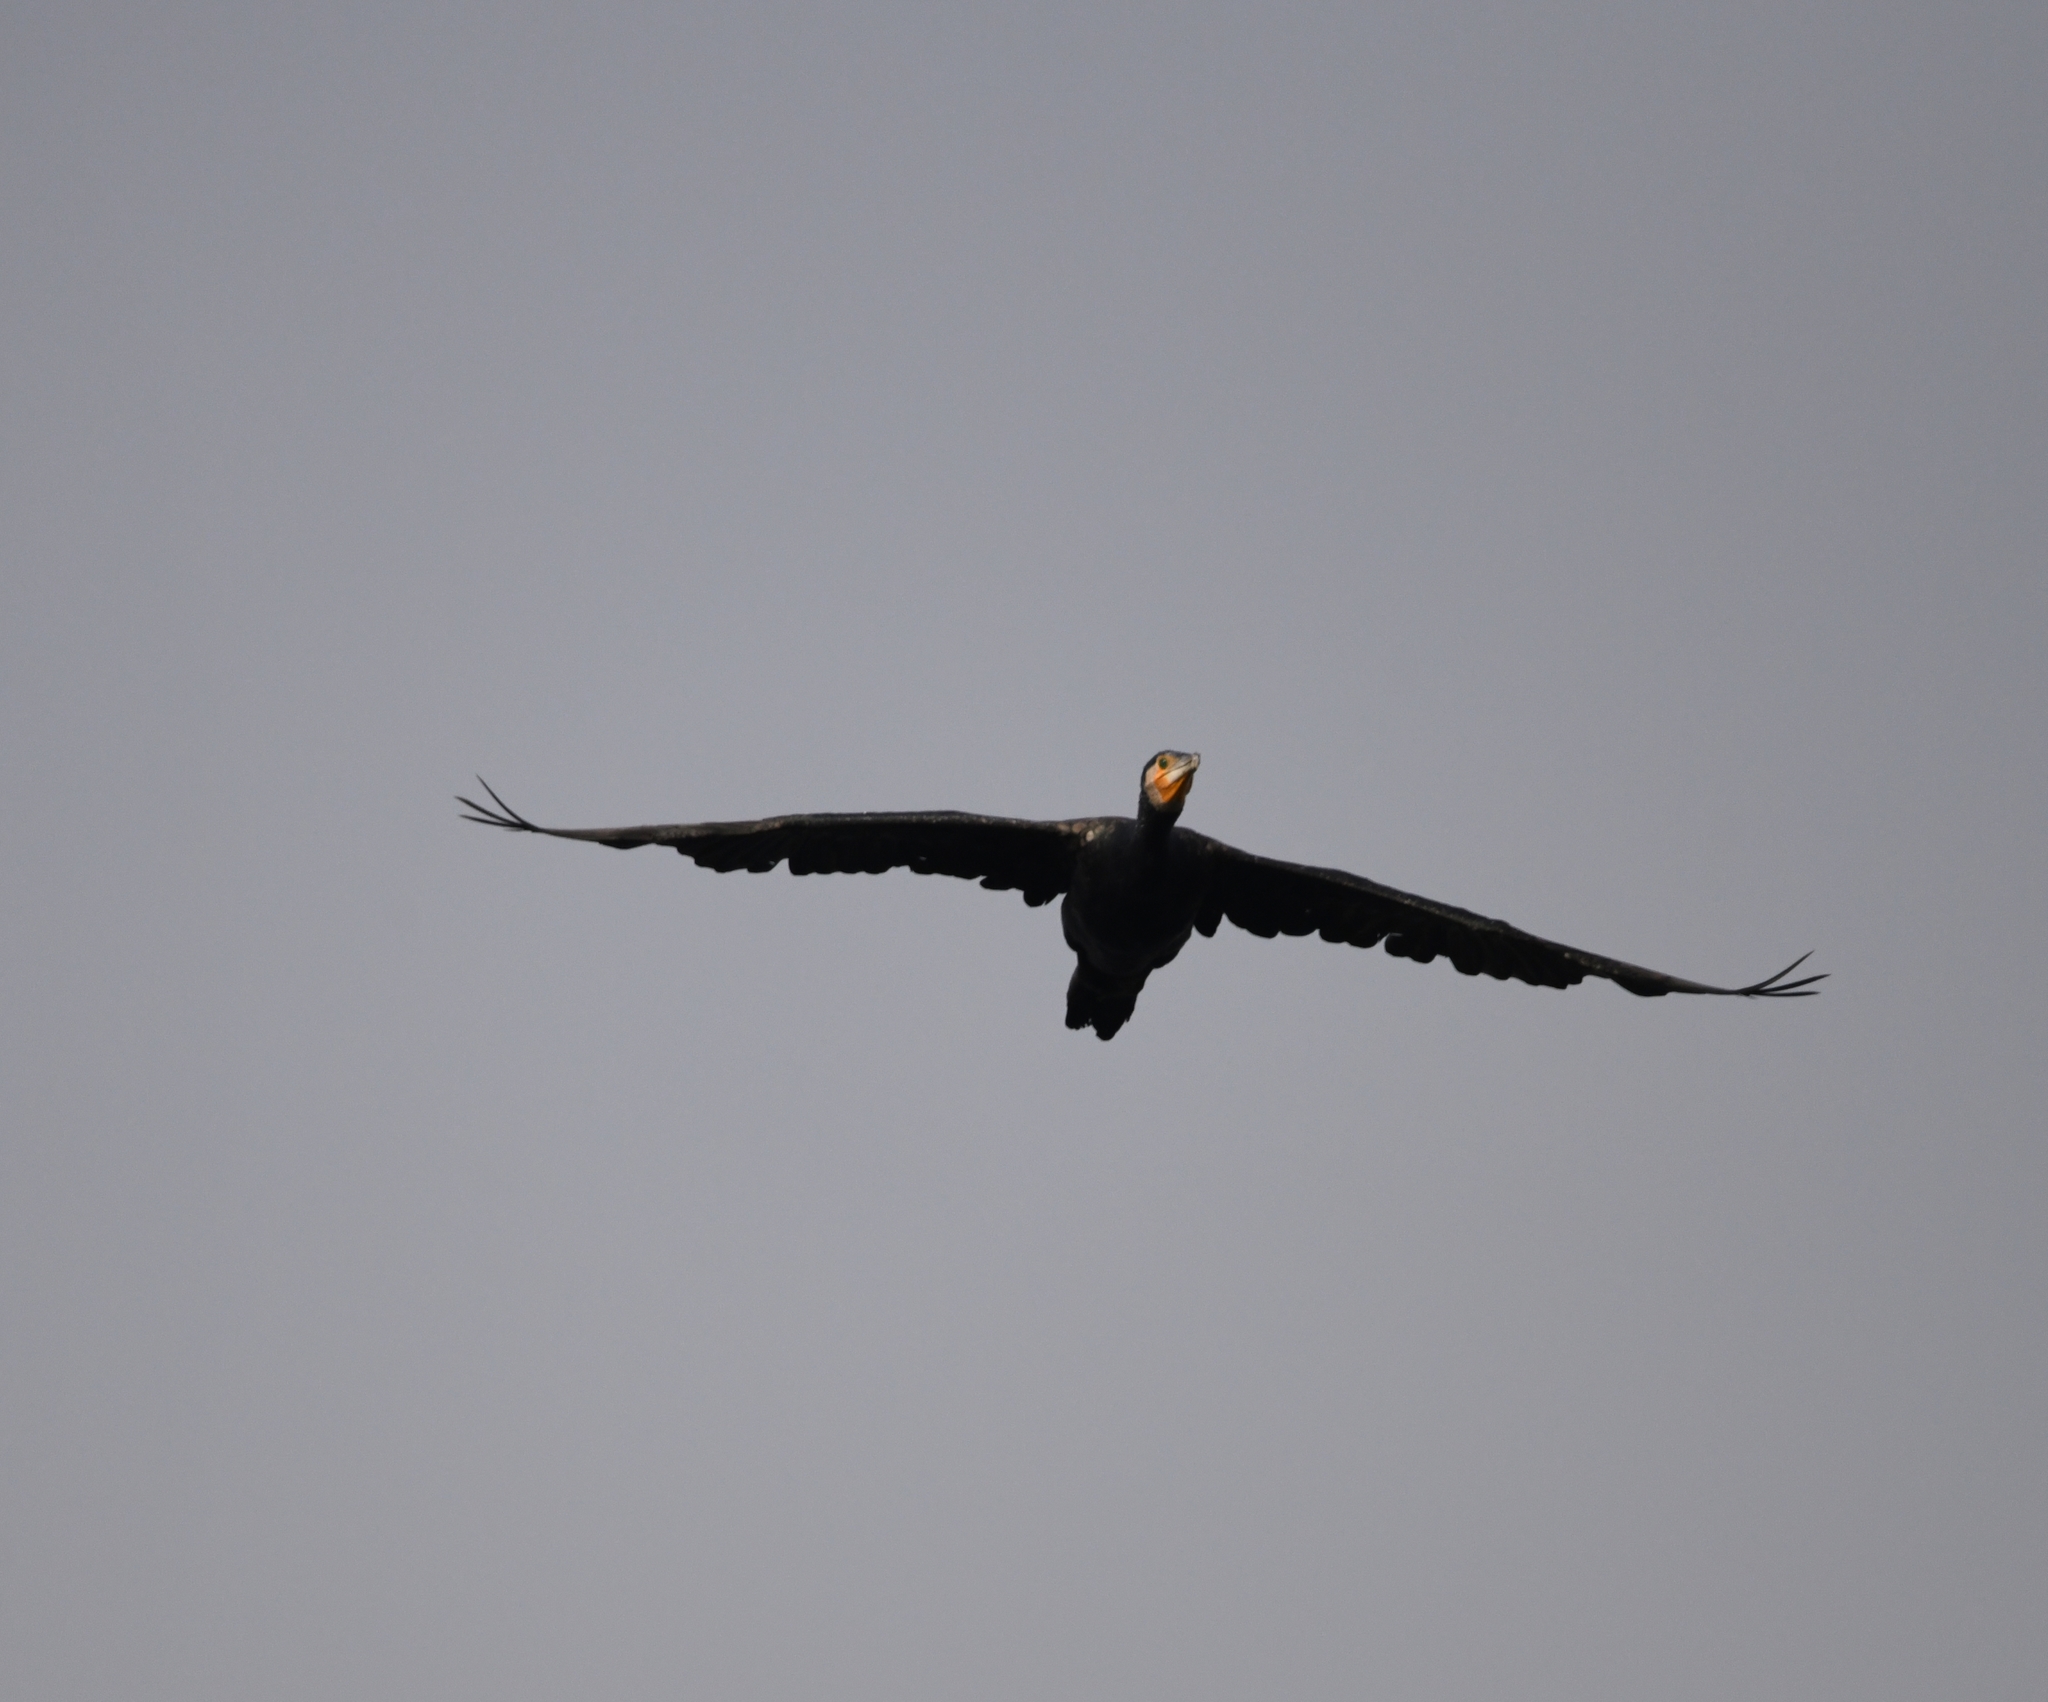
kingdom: Animalia
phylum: Chordata
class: Aves
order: Suliformes
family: Phalacrocoracidae
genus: Phalacrocorax
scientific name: Phalacrocorax carbo
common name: Great cormorant
